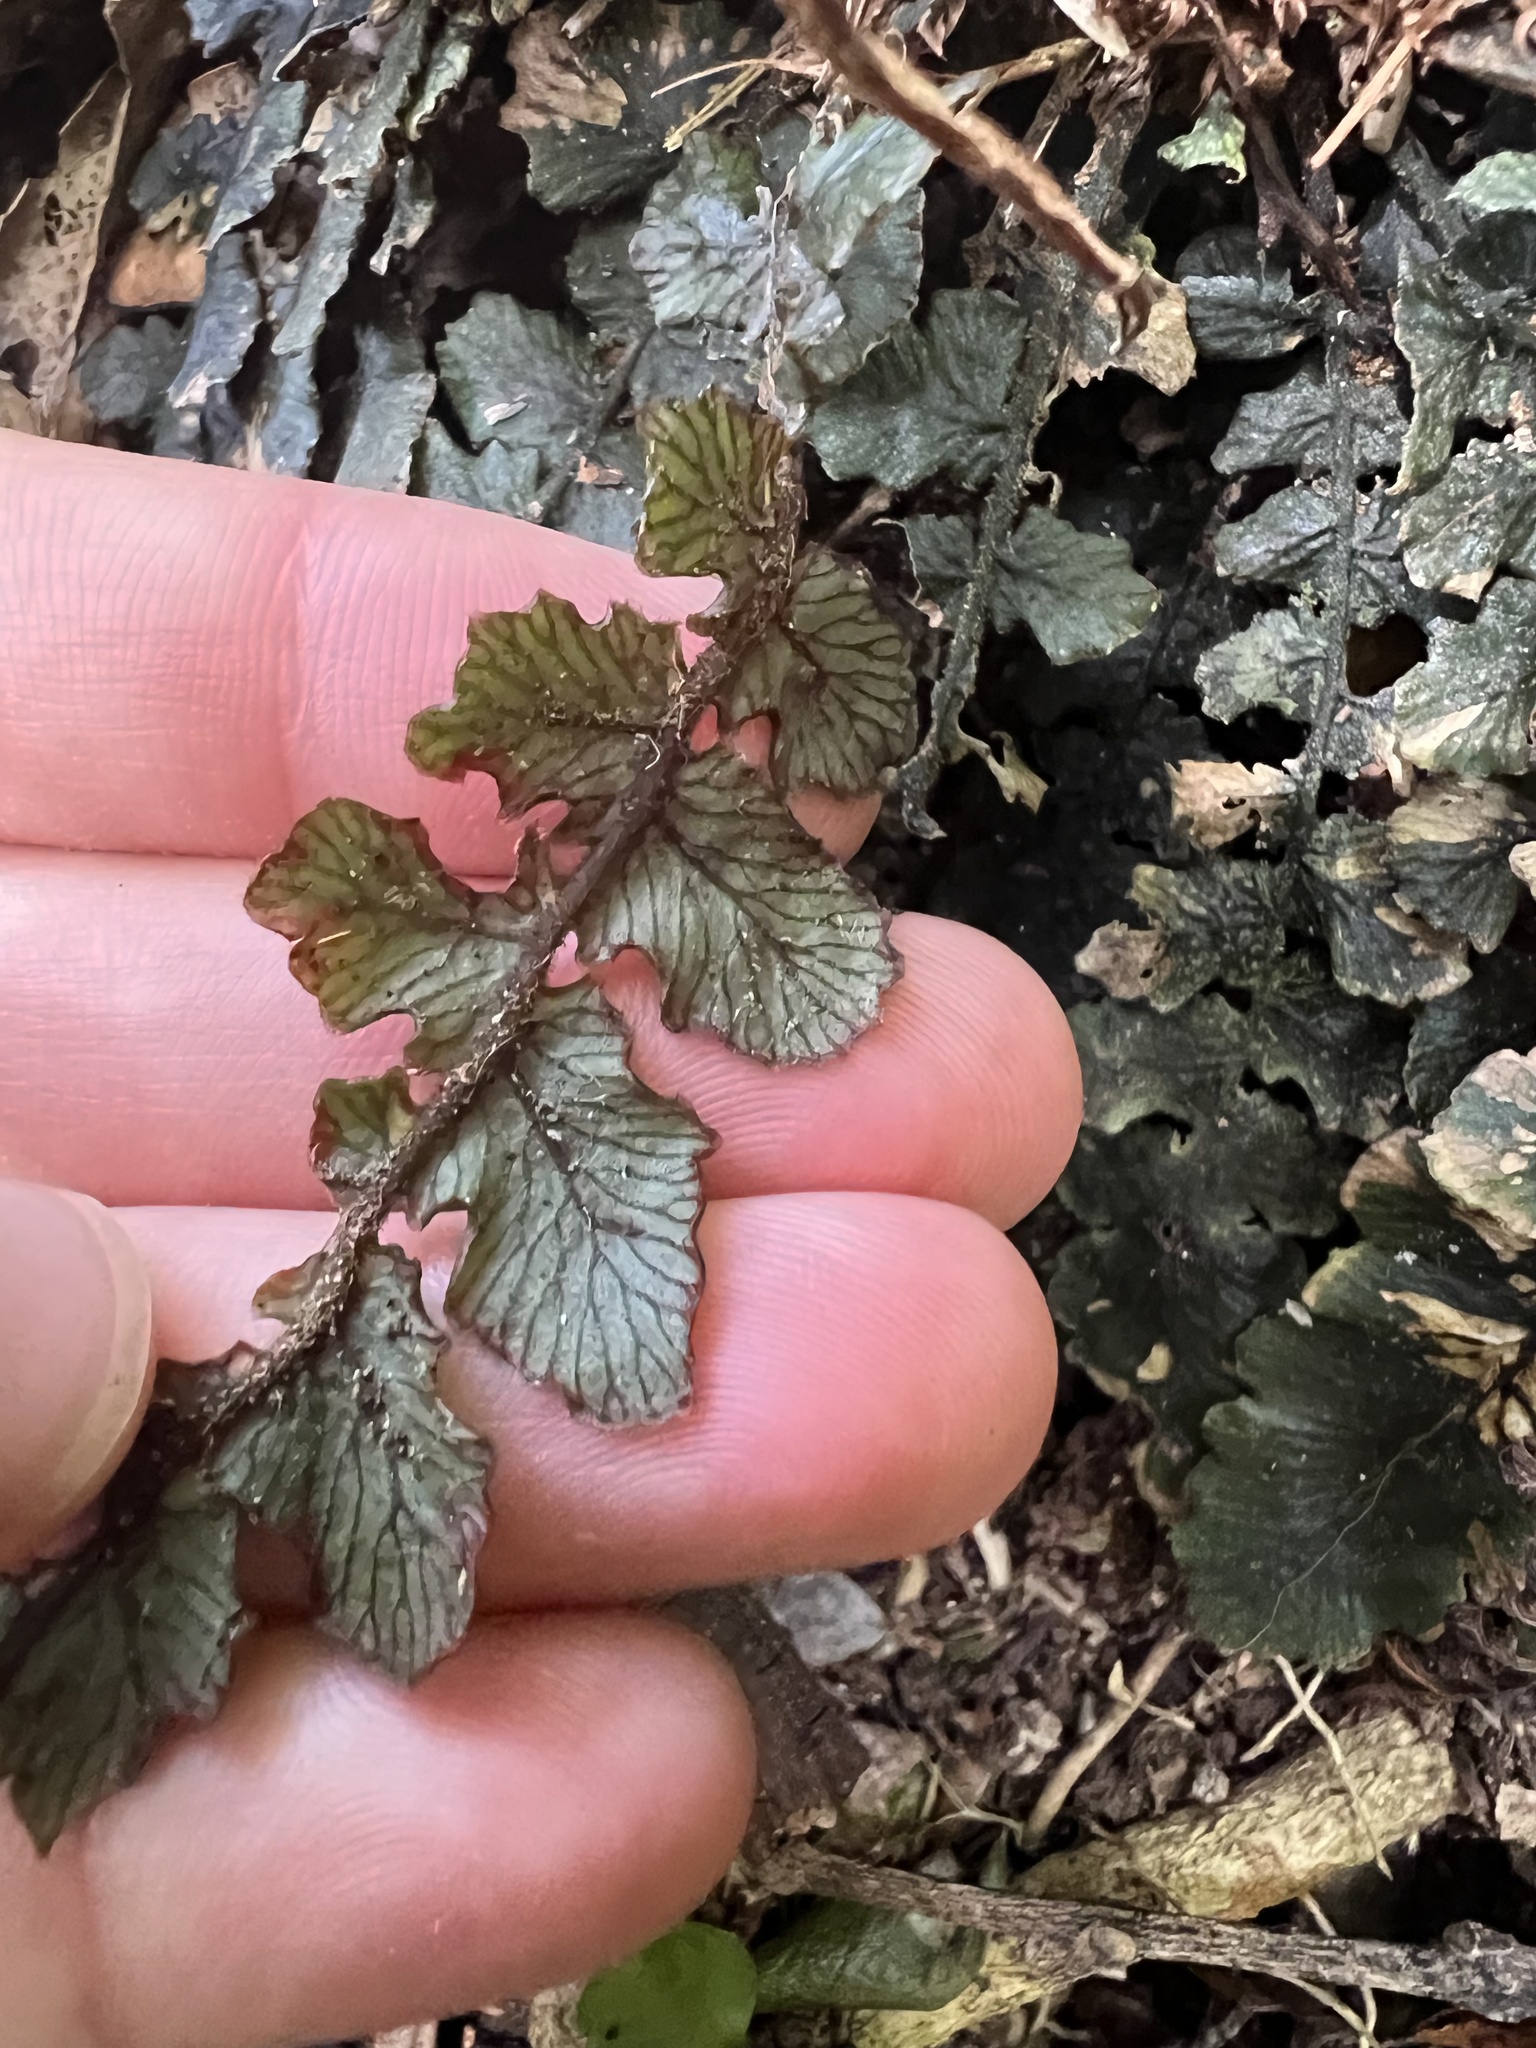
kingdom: Plantae
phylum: Tracheophyta
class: Polypodiopsida
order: Polypodiales
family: Blechnaceae
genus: Cranfillia
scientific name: Cranfillia nigra
